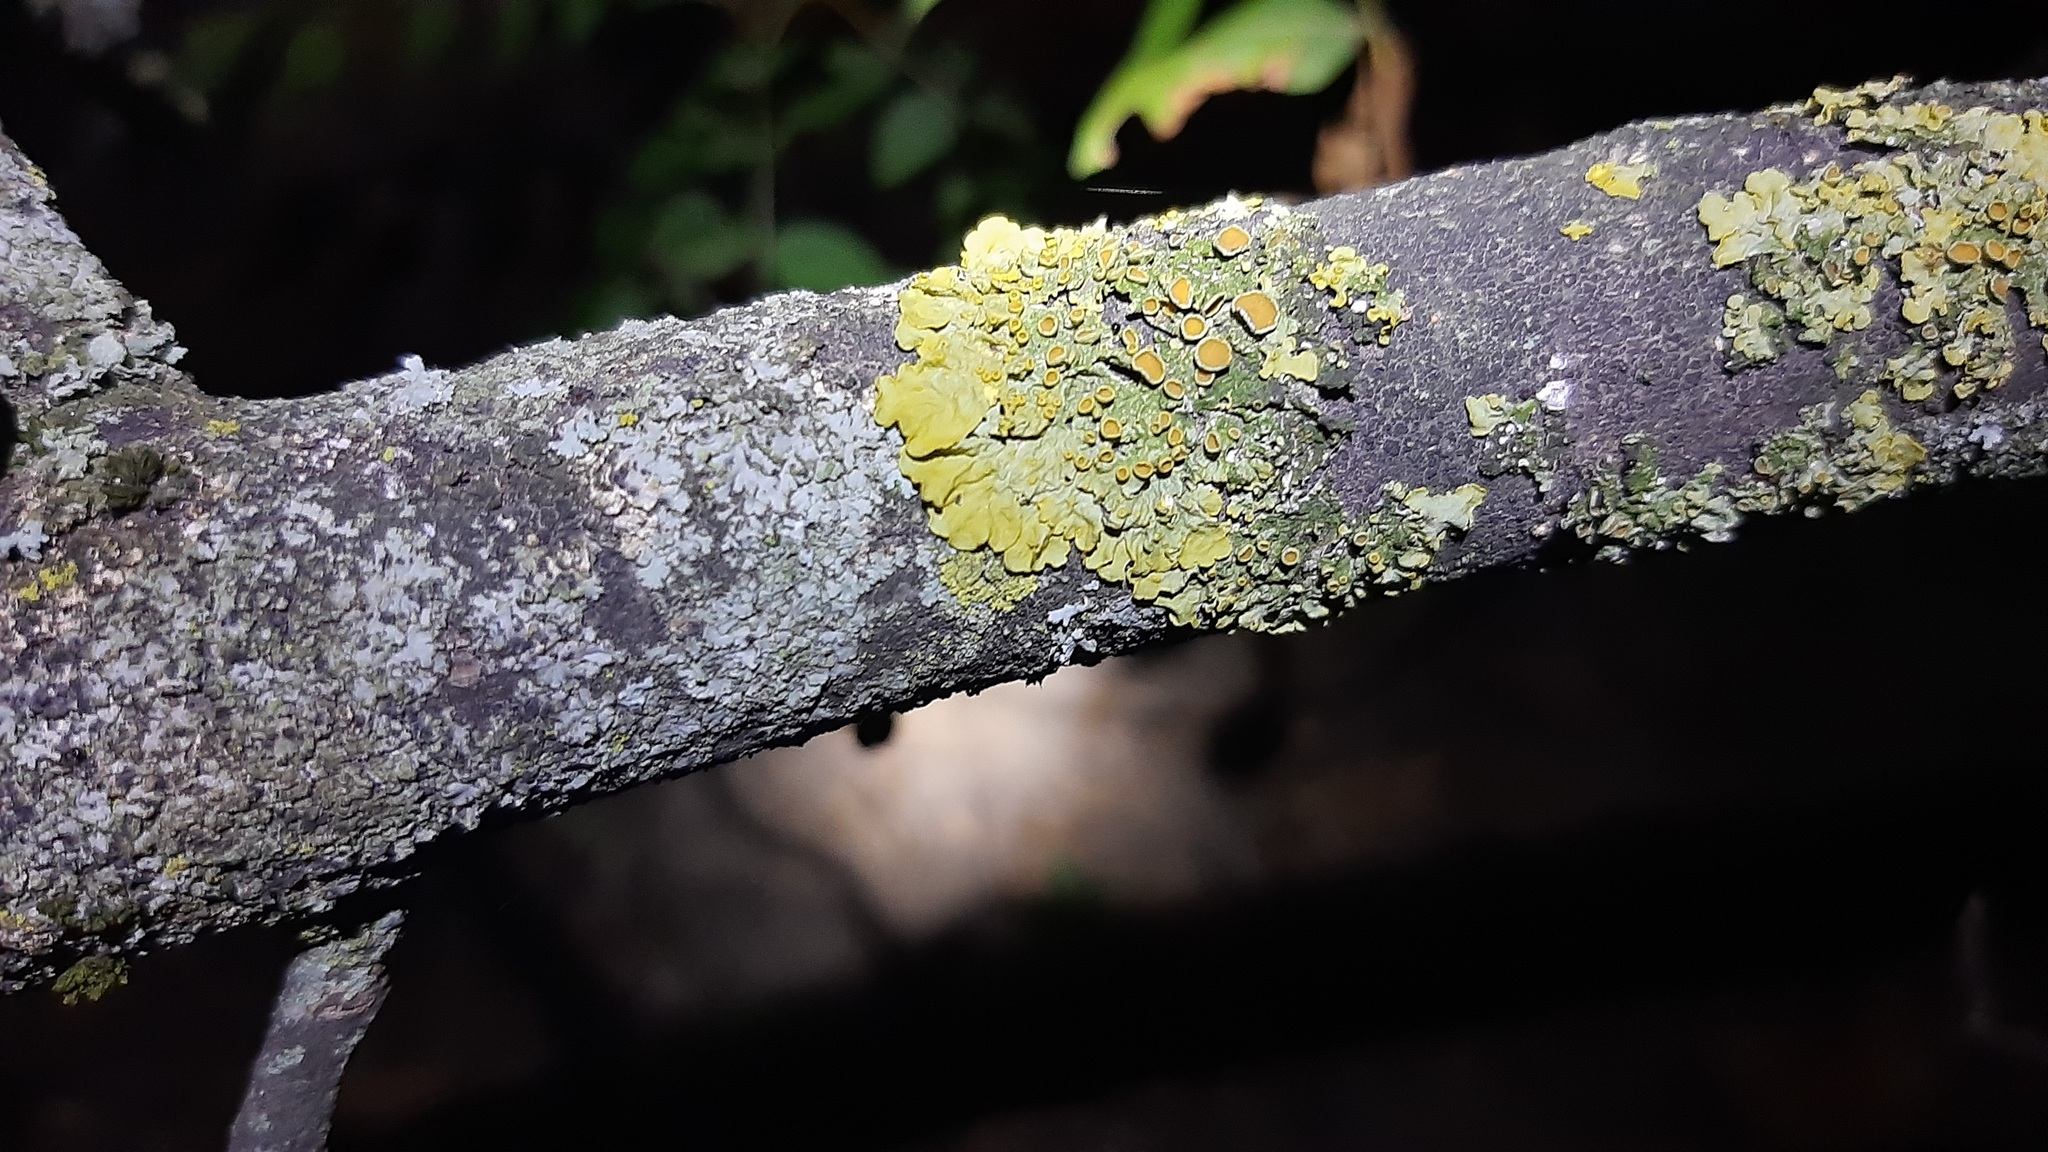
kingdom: Fungi
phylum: Ascomycota
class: Lecanoromycetes
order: Teloschistales
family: Teloschistaceae
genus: Xanthoria
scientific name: Xanthoria parietina
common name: Common orange lichen
